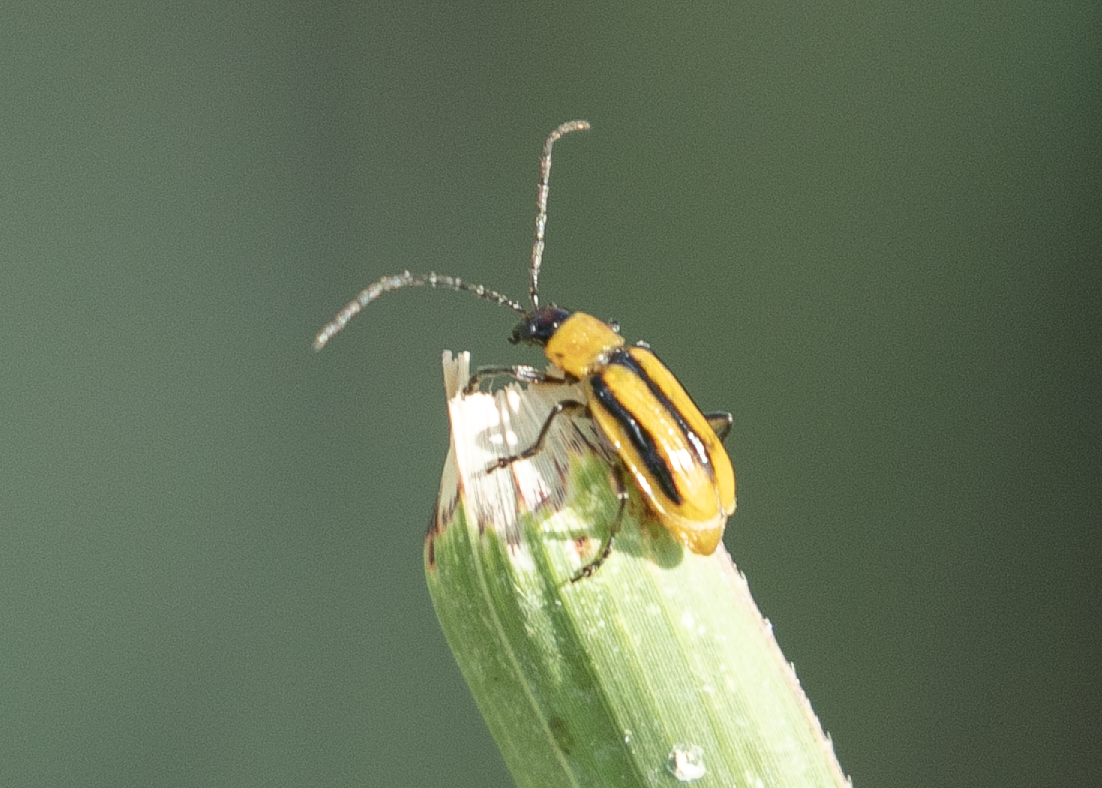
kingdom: Animalia
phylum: Arthropoda
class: Insecta
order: Coleoptera
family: Chrysomelidae
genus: Diabrotica
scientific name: Diabrotica virgifera
